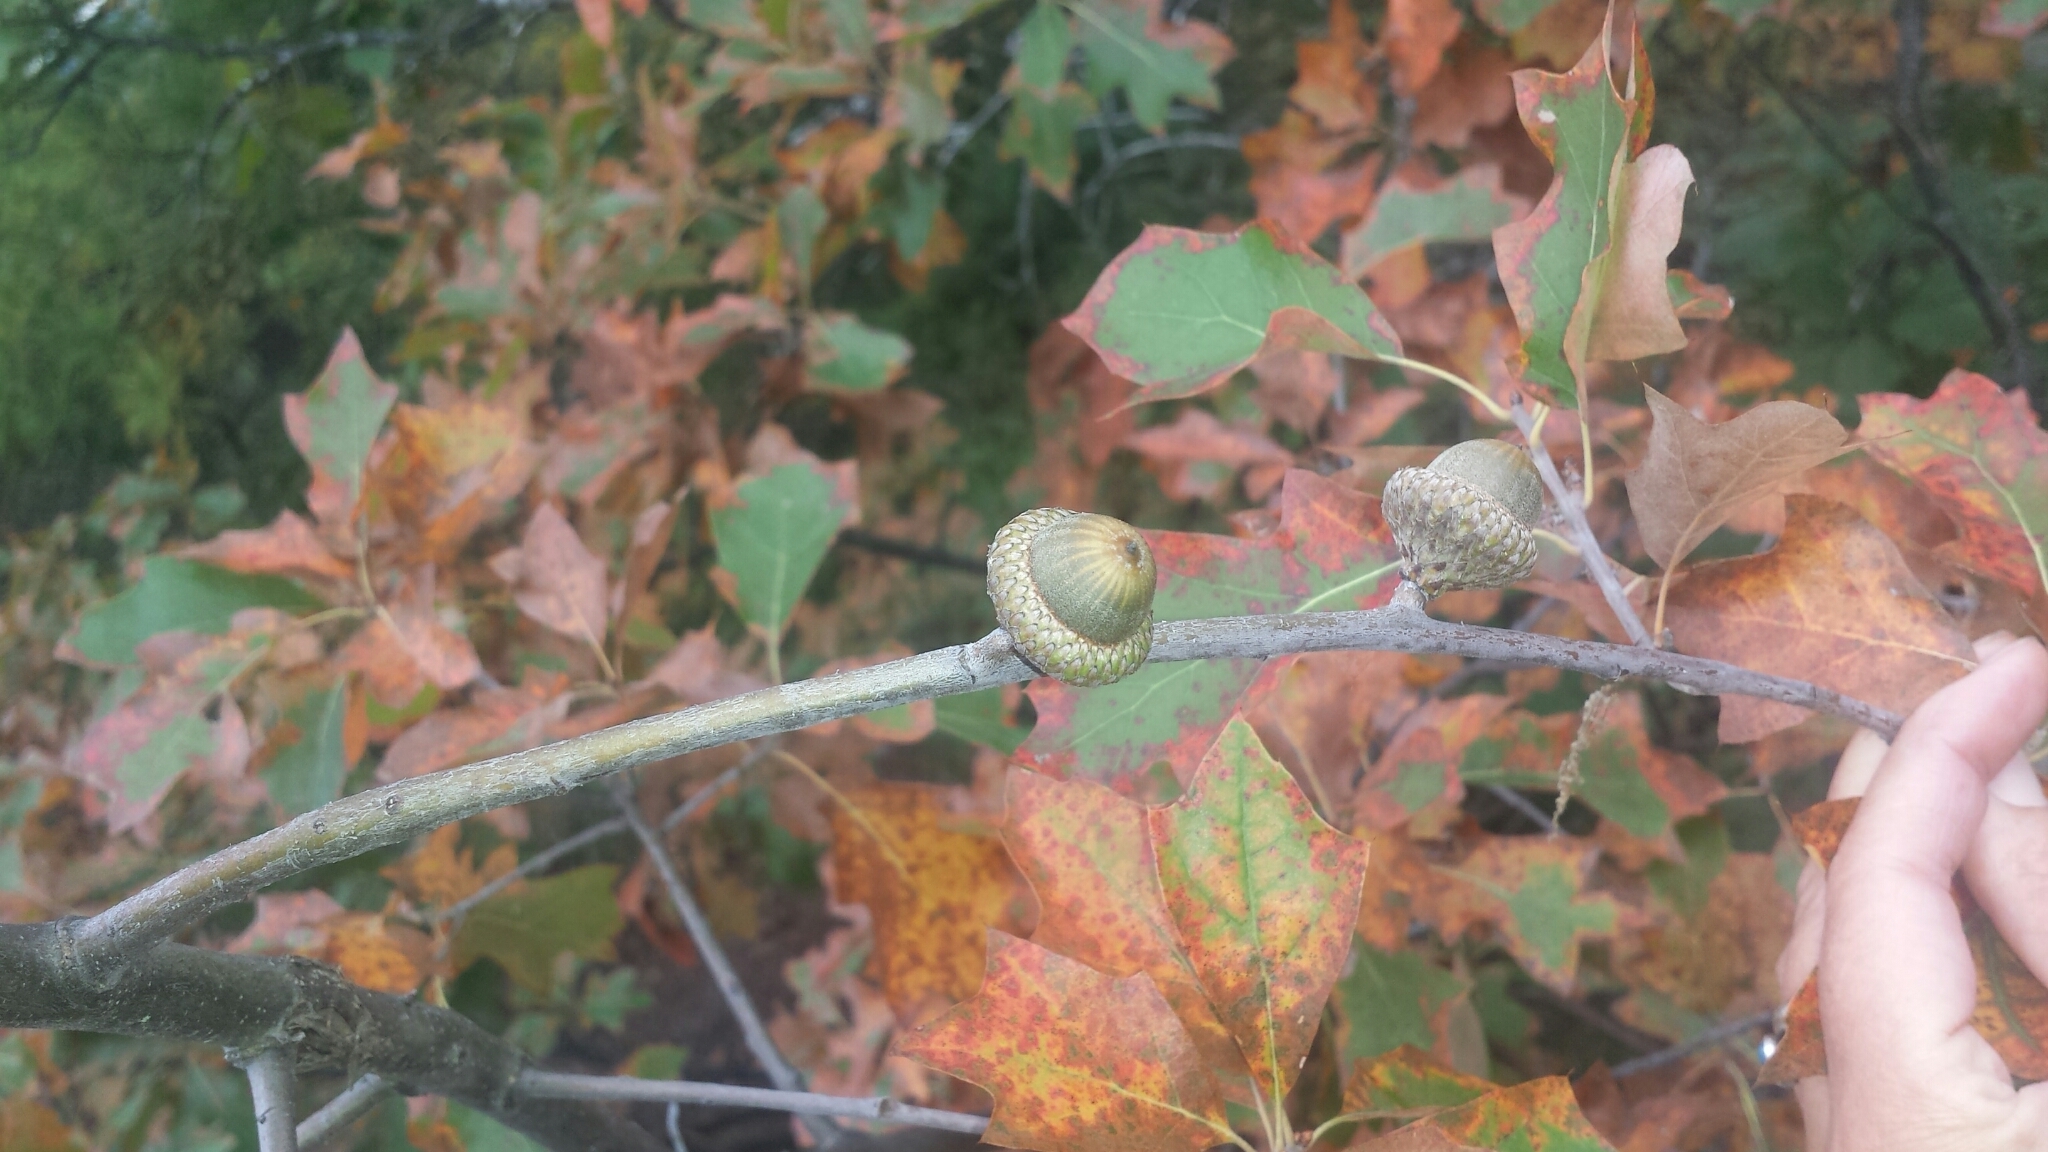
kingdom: Plantae
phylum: Tracheophyta
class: Magnoliopsida
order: Fagales
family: Fagaceae
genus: Quercus
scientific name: Quercus ilicifolia
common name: Bear oak
